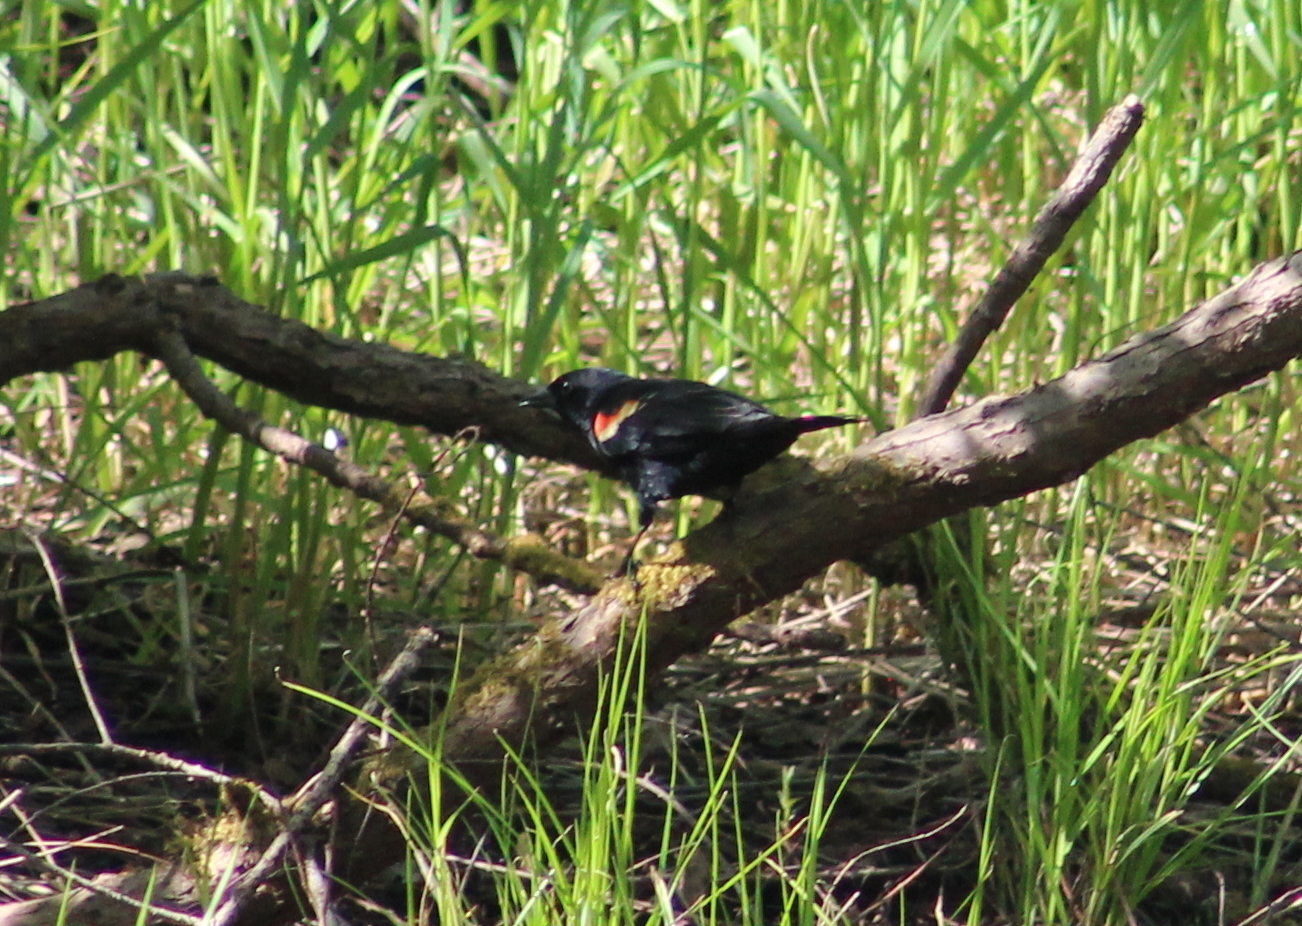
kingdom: Animalia
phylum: Chordata
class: Aves
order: Passeriformes
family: Icteridae
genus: Agelaius
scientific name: Agelaius phoeniceus
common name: Red-winged blackbird
